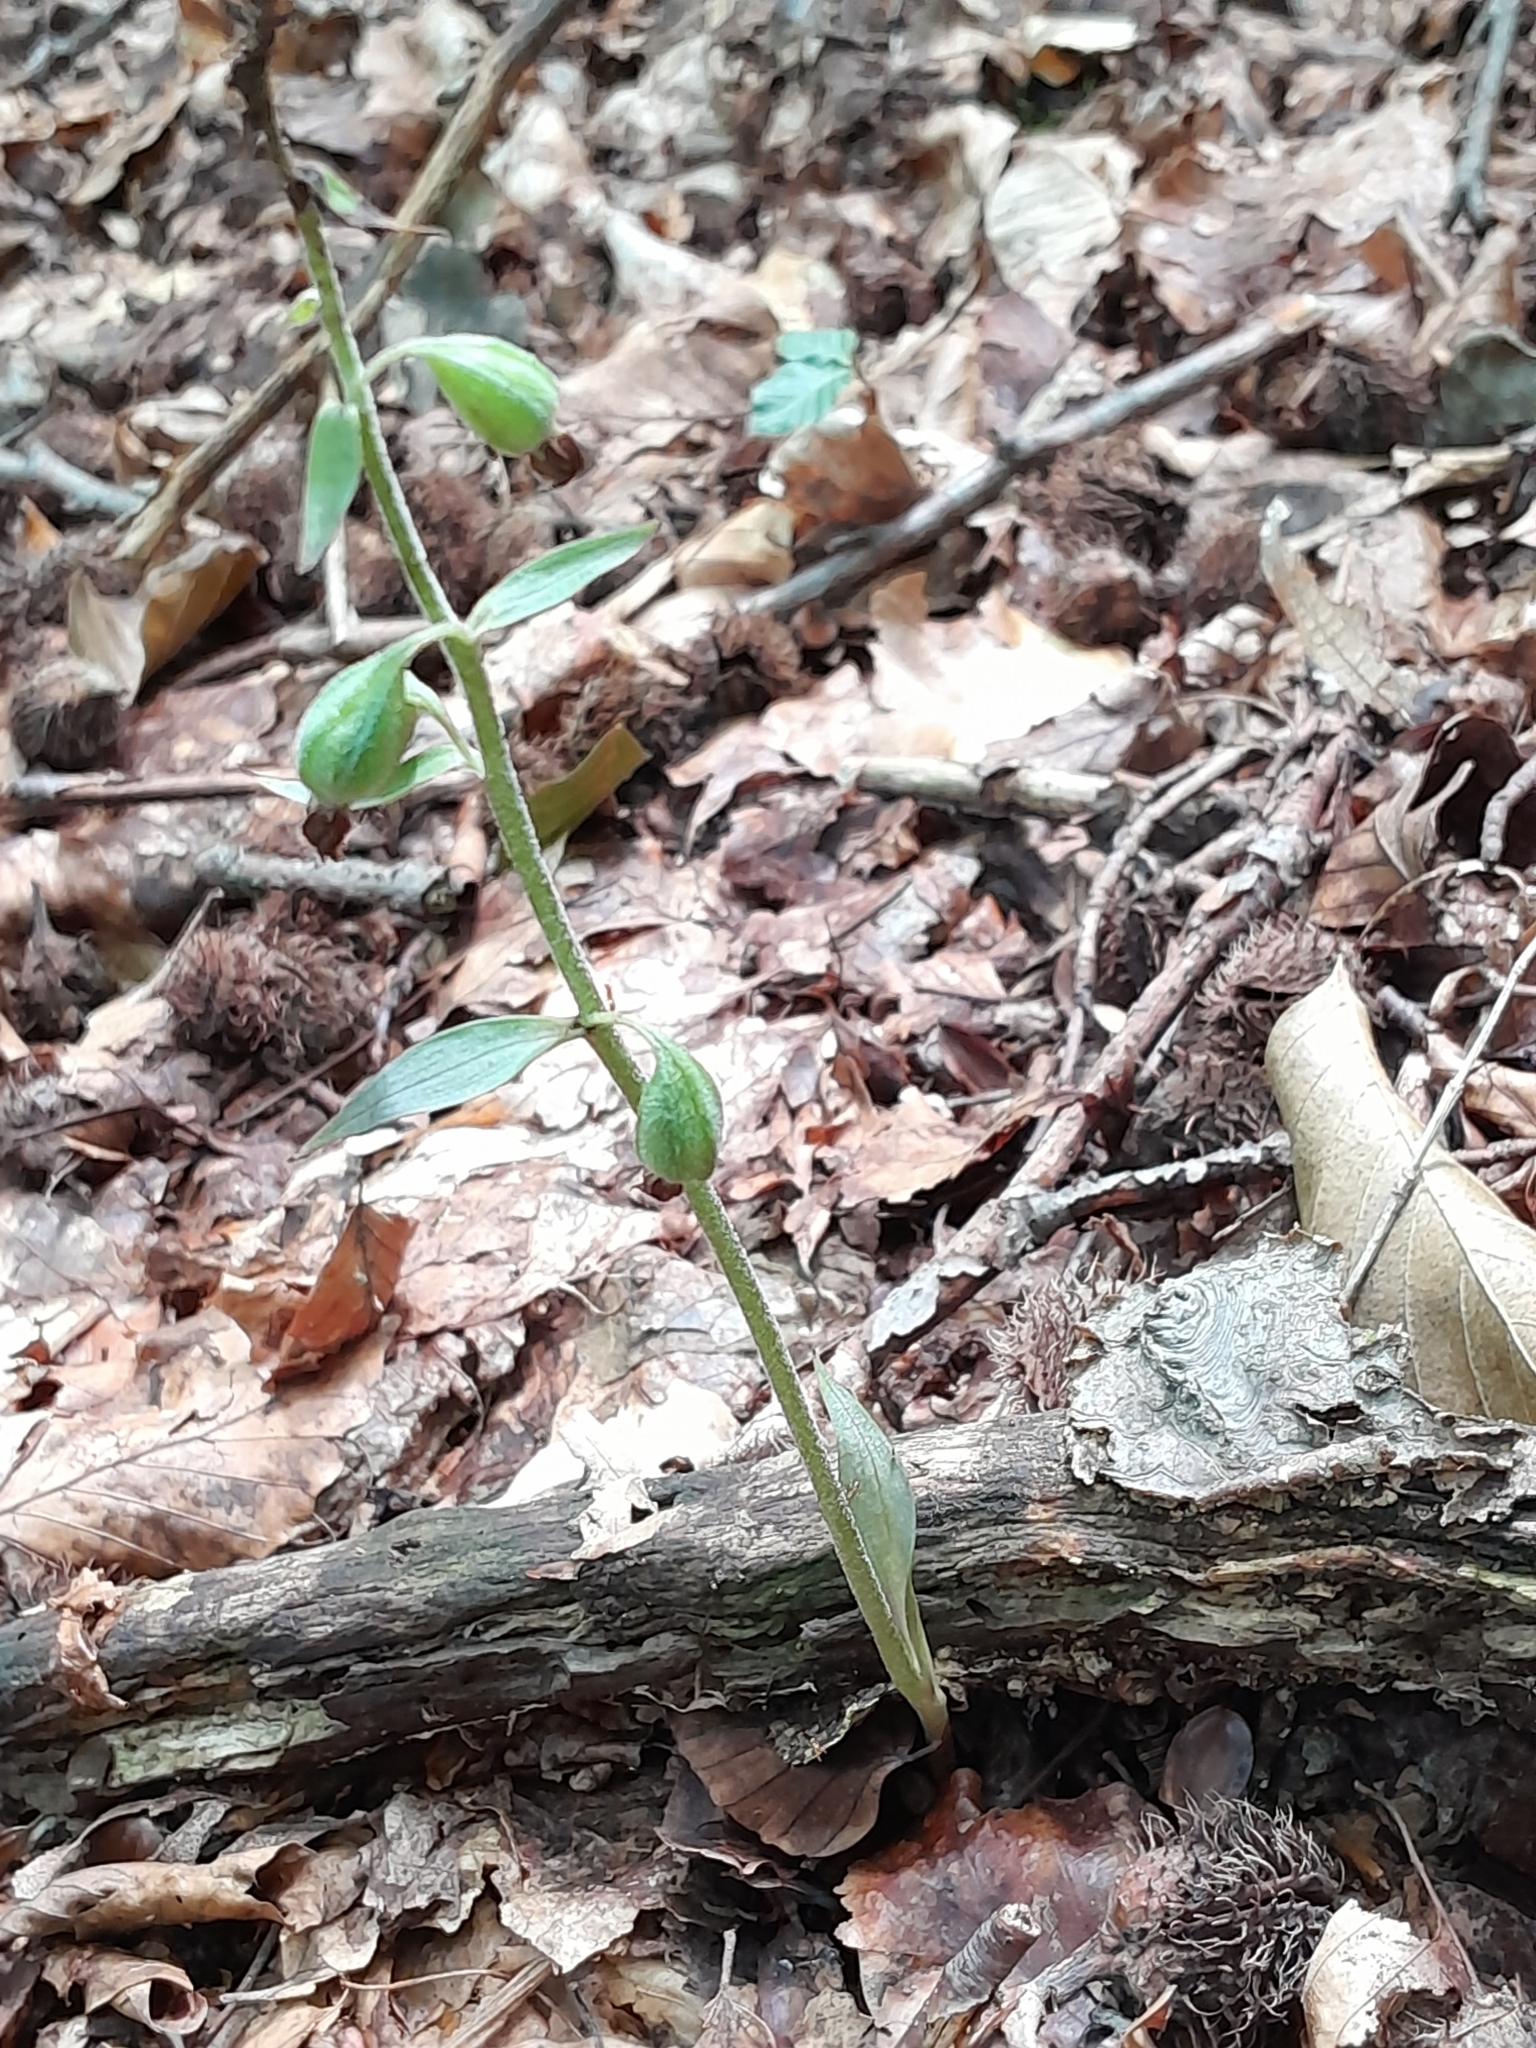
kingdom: Plantae
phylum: Tracheophyta
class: Liliopsida
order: Asparagales
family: Orchidaceae
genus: Epipactis
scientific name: Epipactis microphylla
